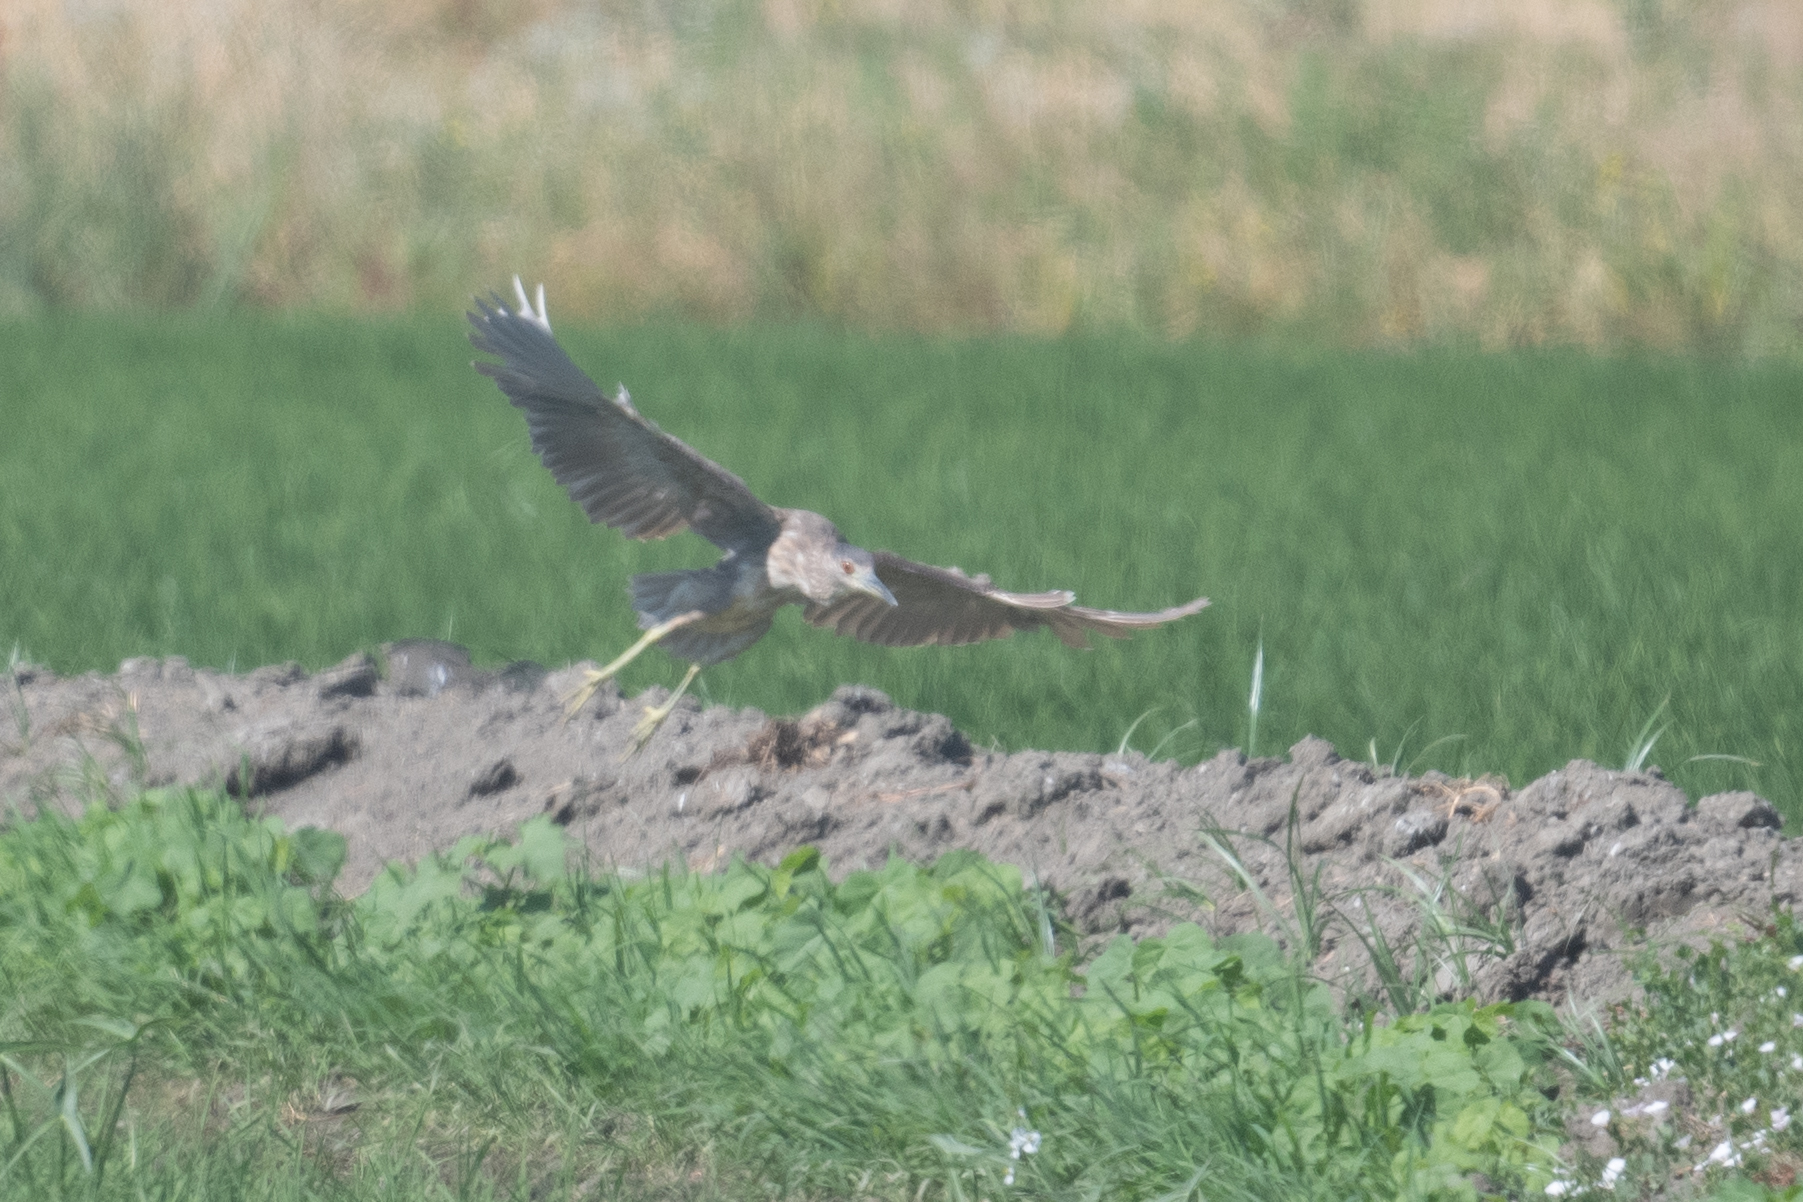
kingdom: Animalia
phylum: Chordata
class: Aves
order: Pelecaniformes
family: Ardeidae
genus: Nycticorax
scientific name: Nycticorax nycticorax
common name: Black-crowned night heron
